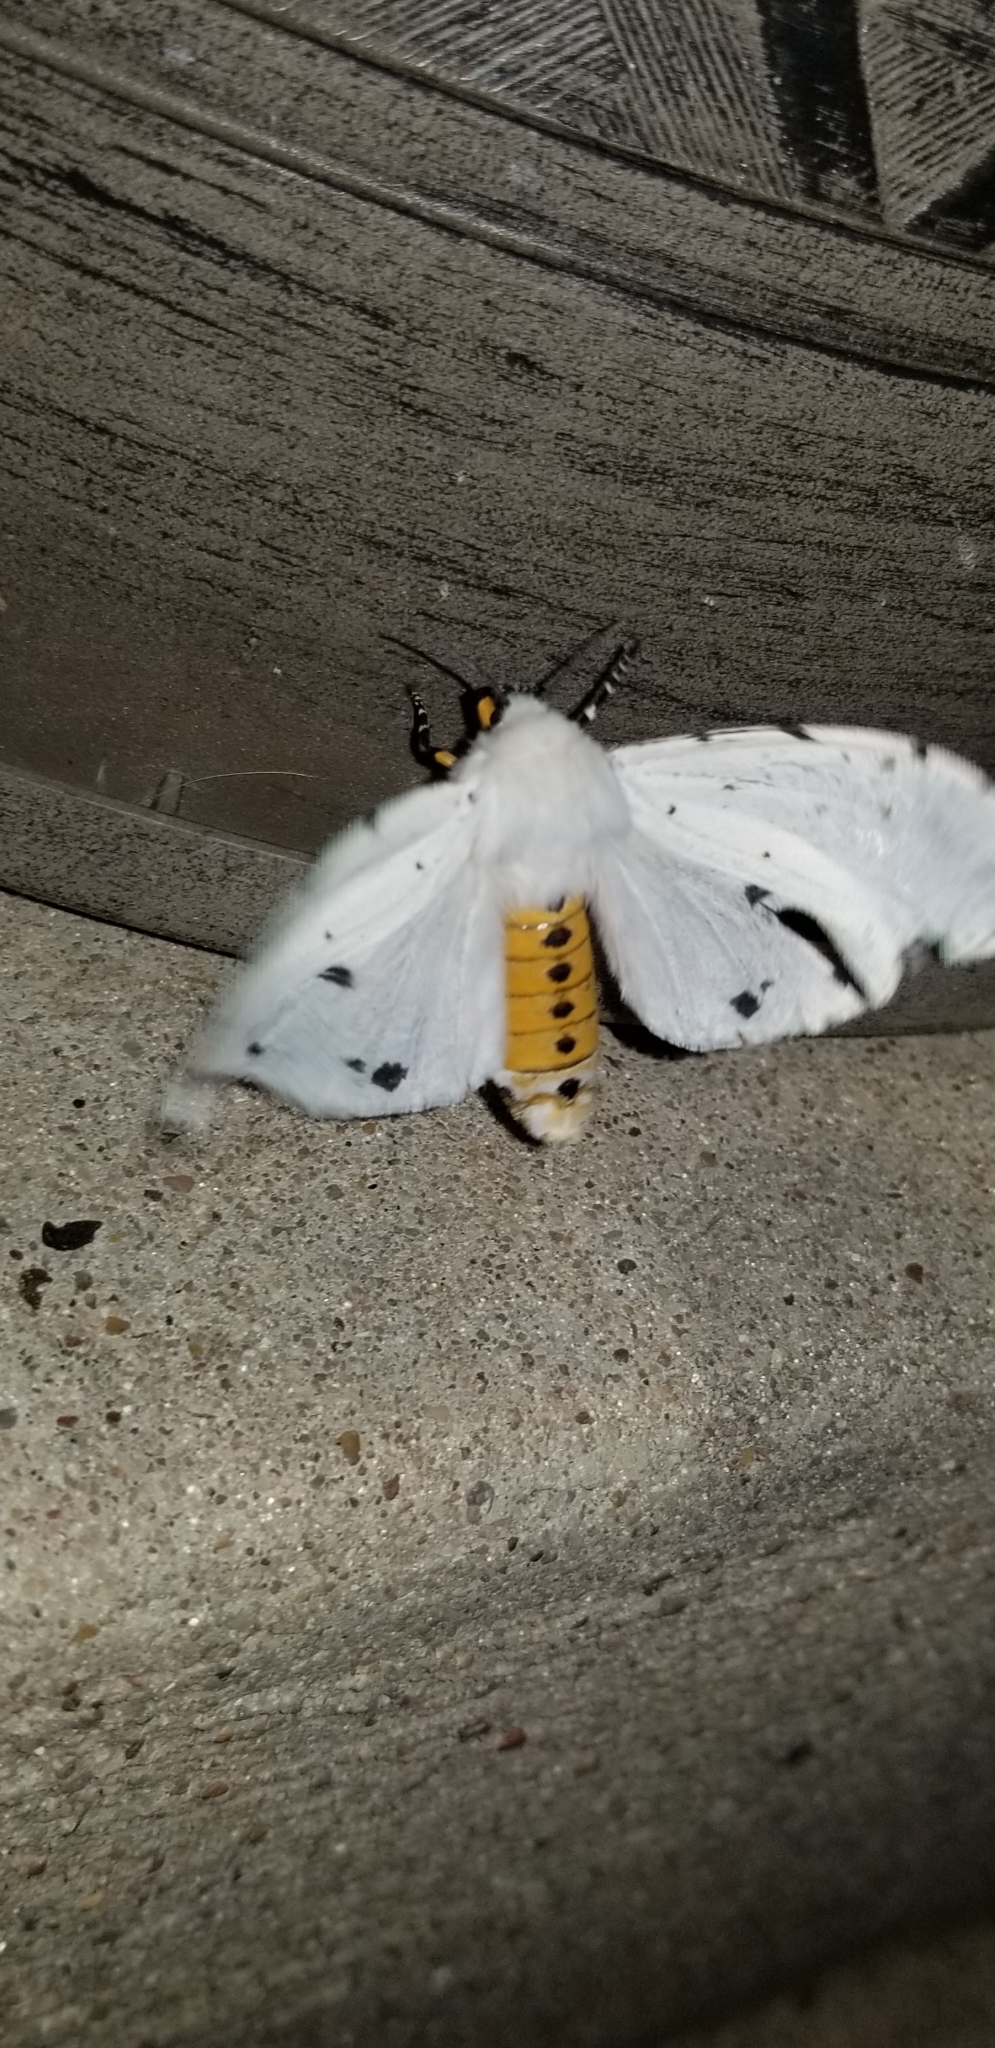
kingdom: Animalia
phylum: Arthropoda
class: Insecta
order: Lepidoptera
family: Erebidae
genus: Estigmene
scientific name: Estigmene acrea
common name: Salt marsh moth
